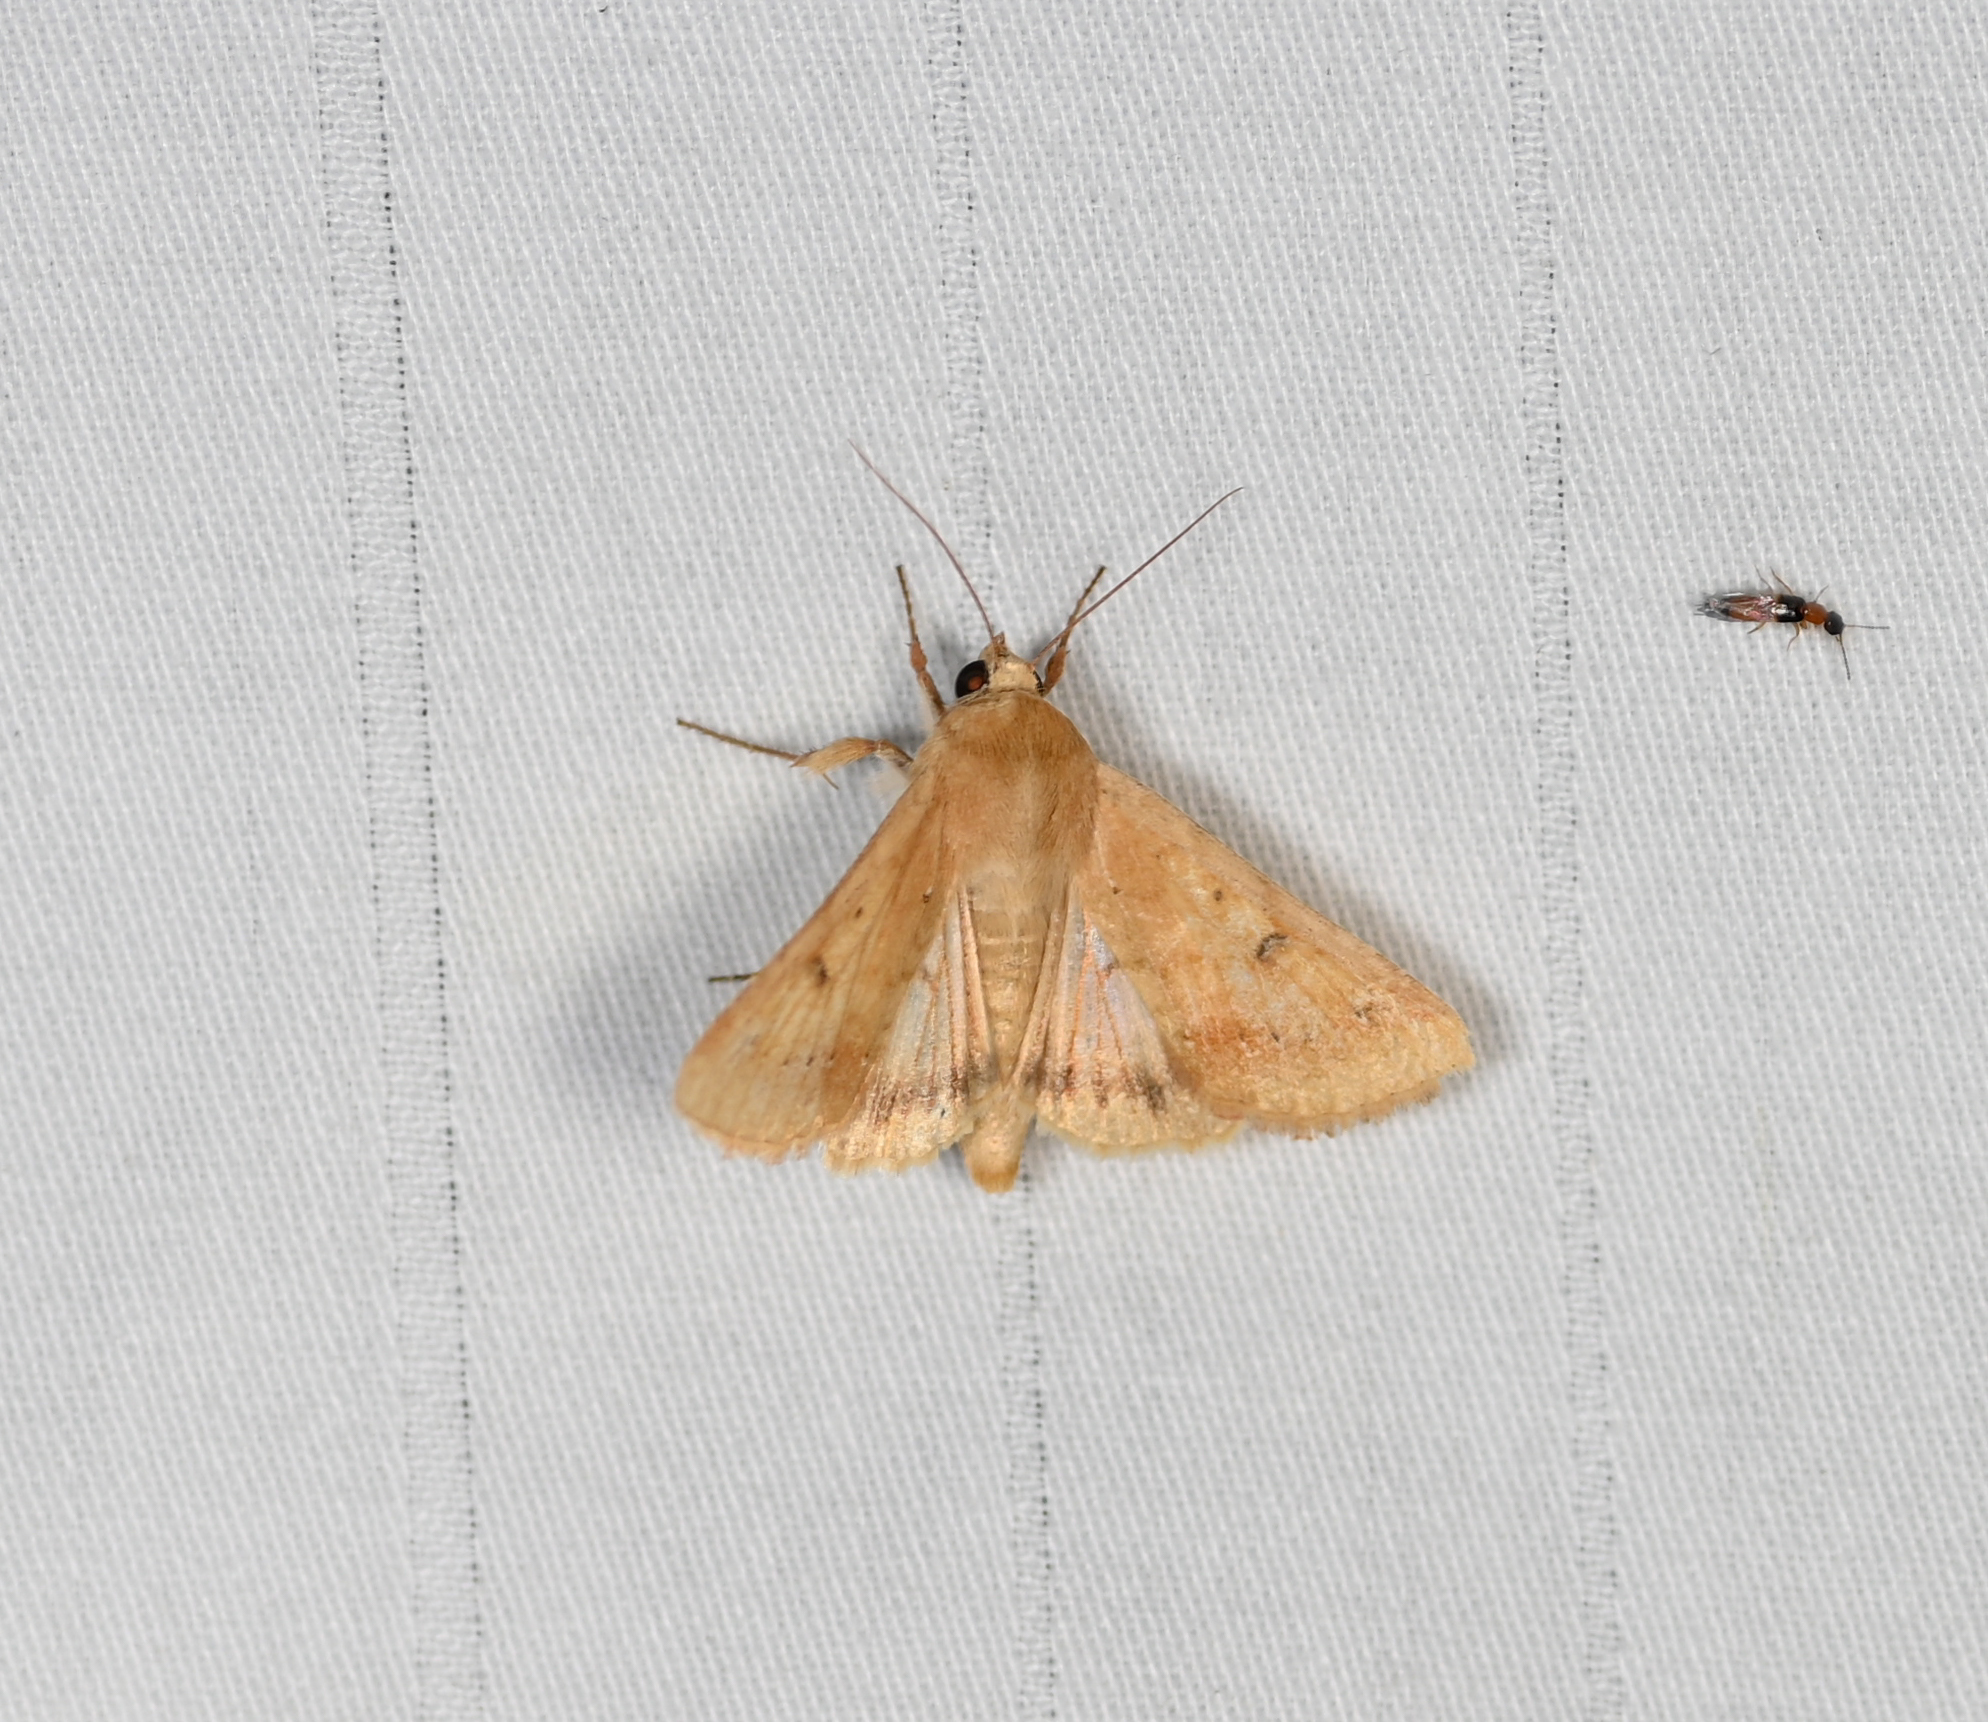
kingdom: Animalia
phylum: Arthropoda
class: Insecta
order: Lepidoptera
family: Noctuidae
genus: Helicoverpa
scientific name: Helicoverpa zea
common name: Bollworm
